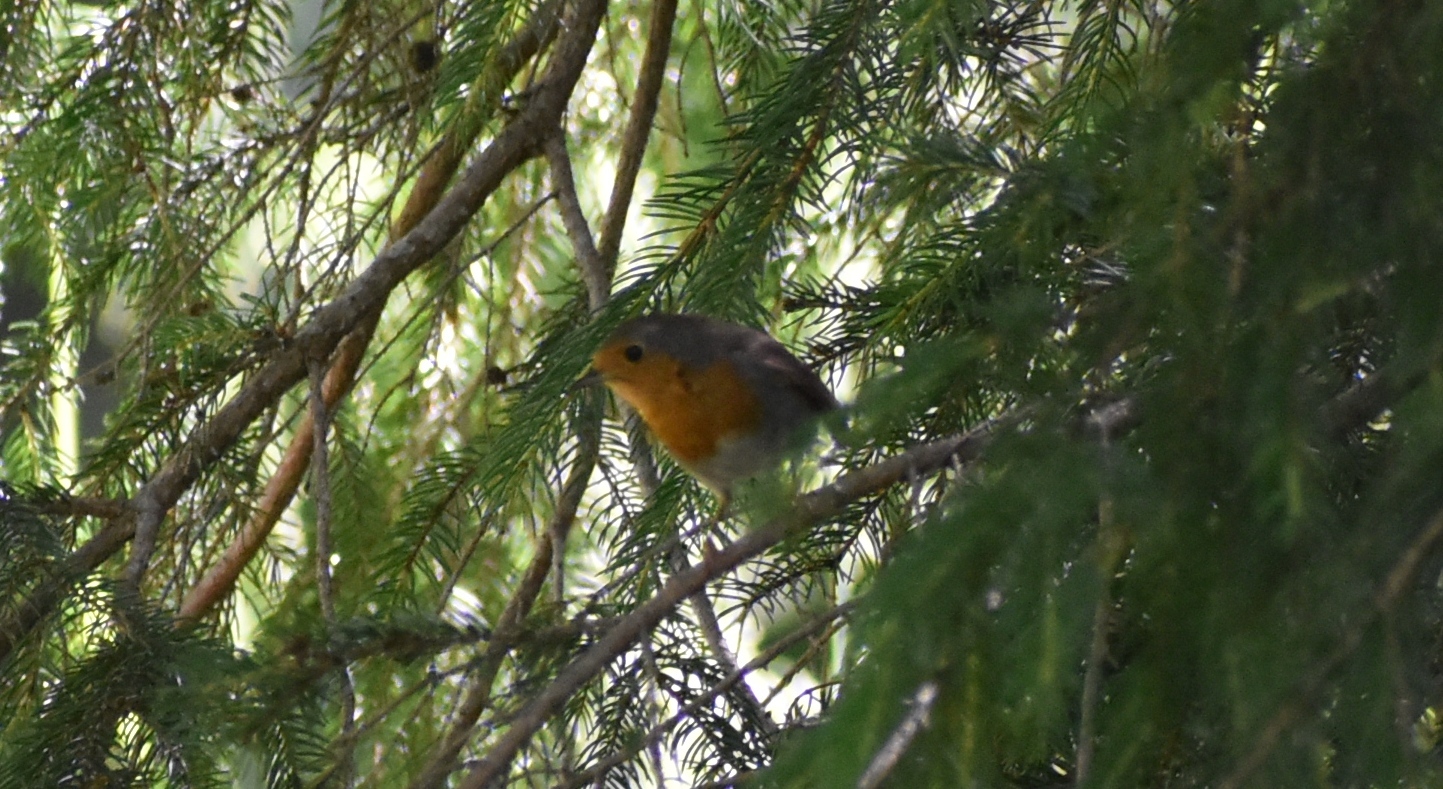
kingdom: Animalia
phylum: Chordata
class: Aves
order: Passeriformes
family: Muscicapidae
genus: Erithacus
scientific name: Erithacus rubecula
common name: European robin
